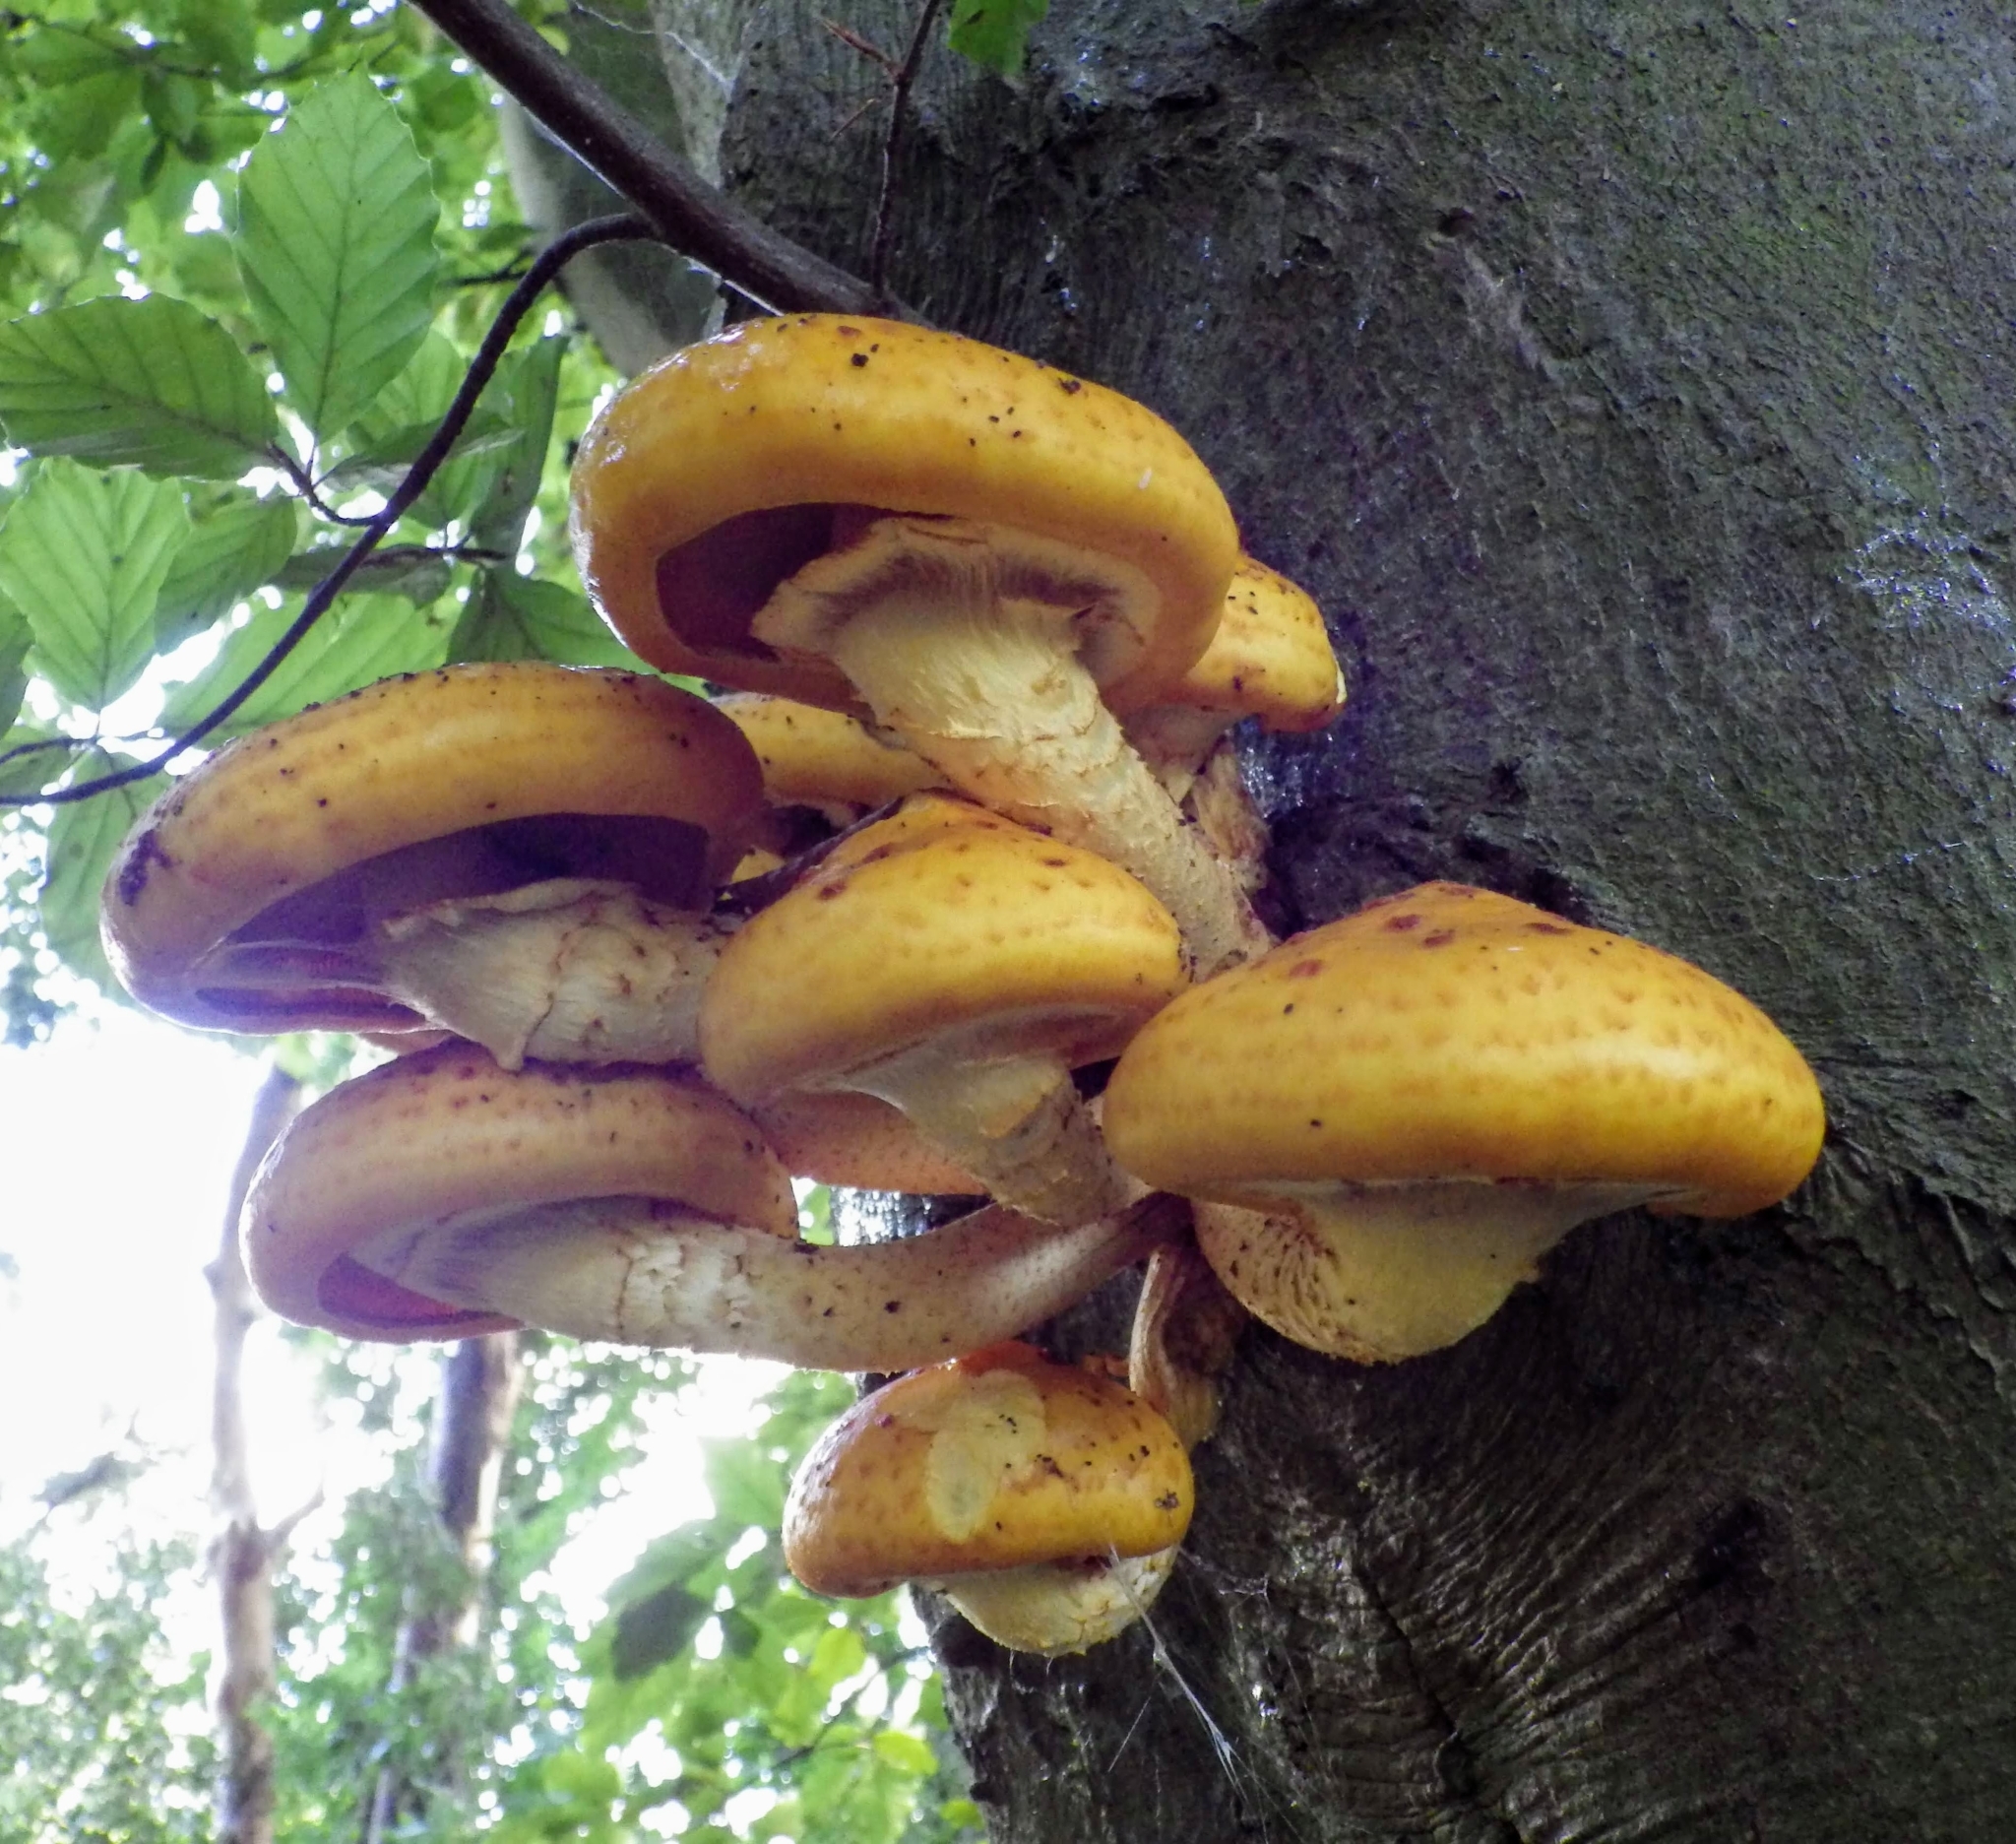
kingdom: Fungi
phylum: Basidiomycota
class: Agaricomycetes
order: Agaricales
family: Strophariaceae
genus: Pholiota
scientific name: Pholiota aurivella
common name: Golden scalycap
